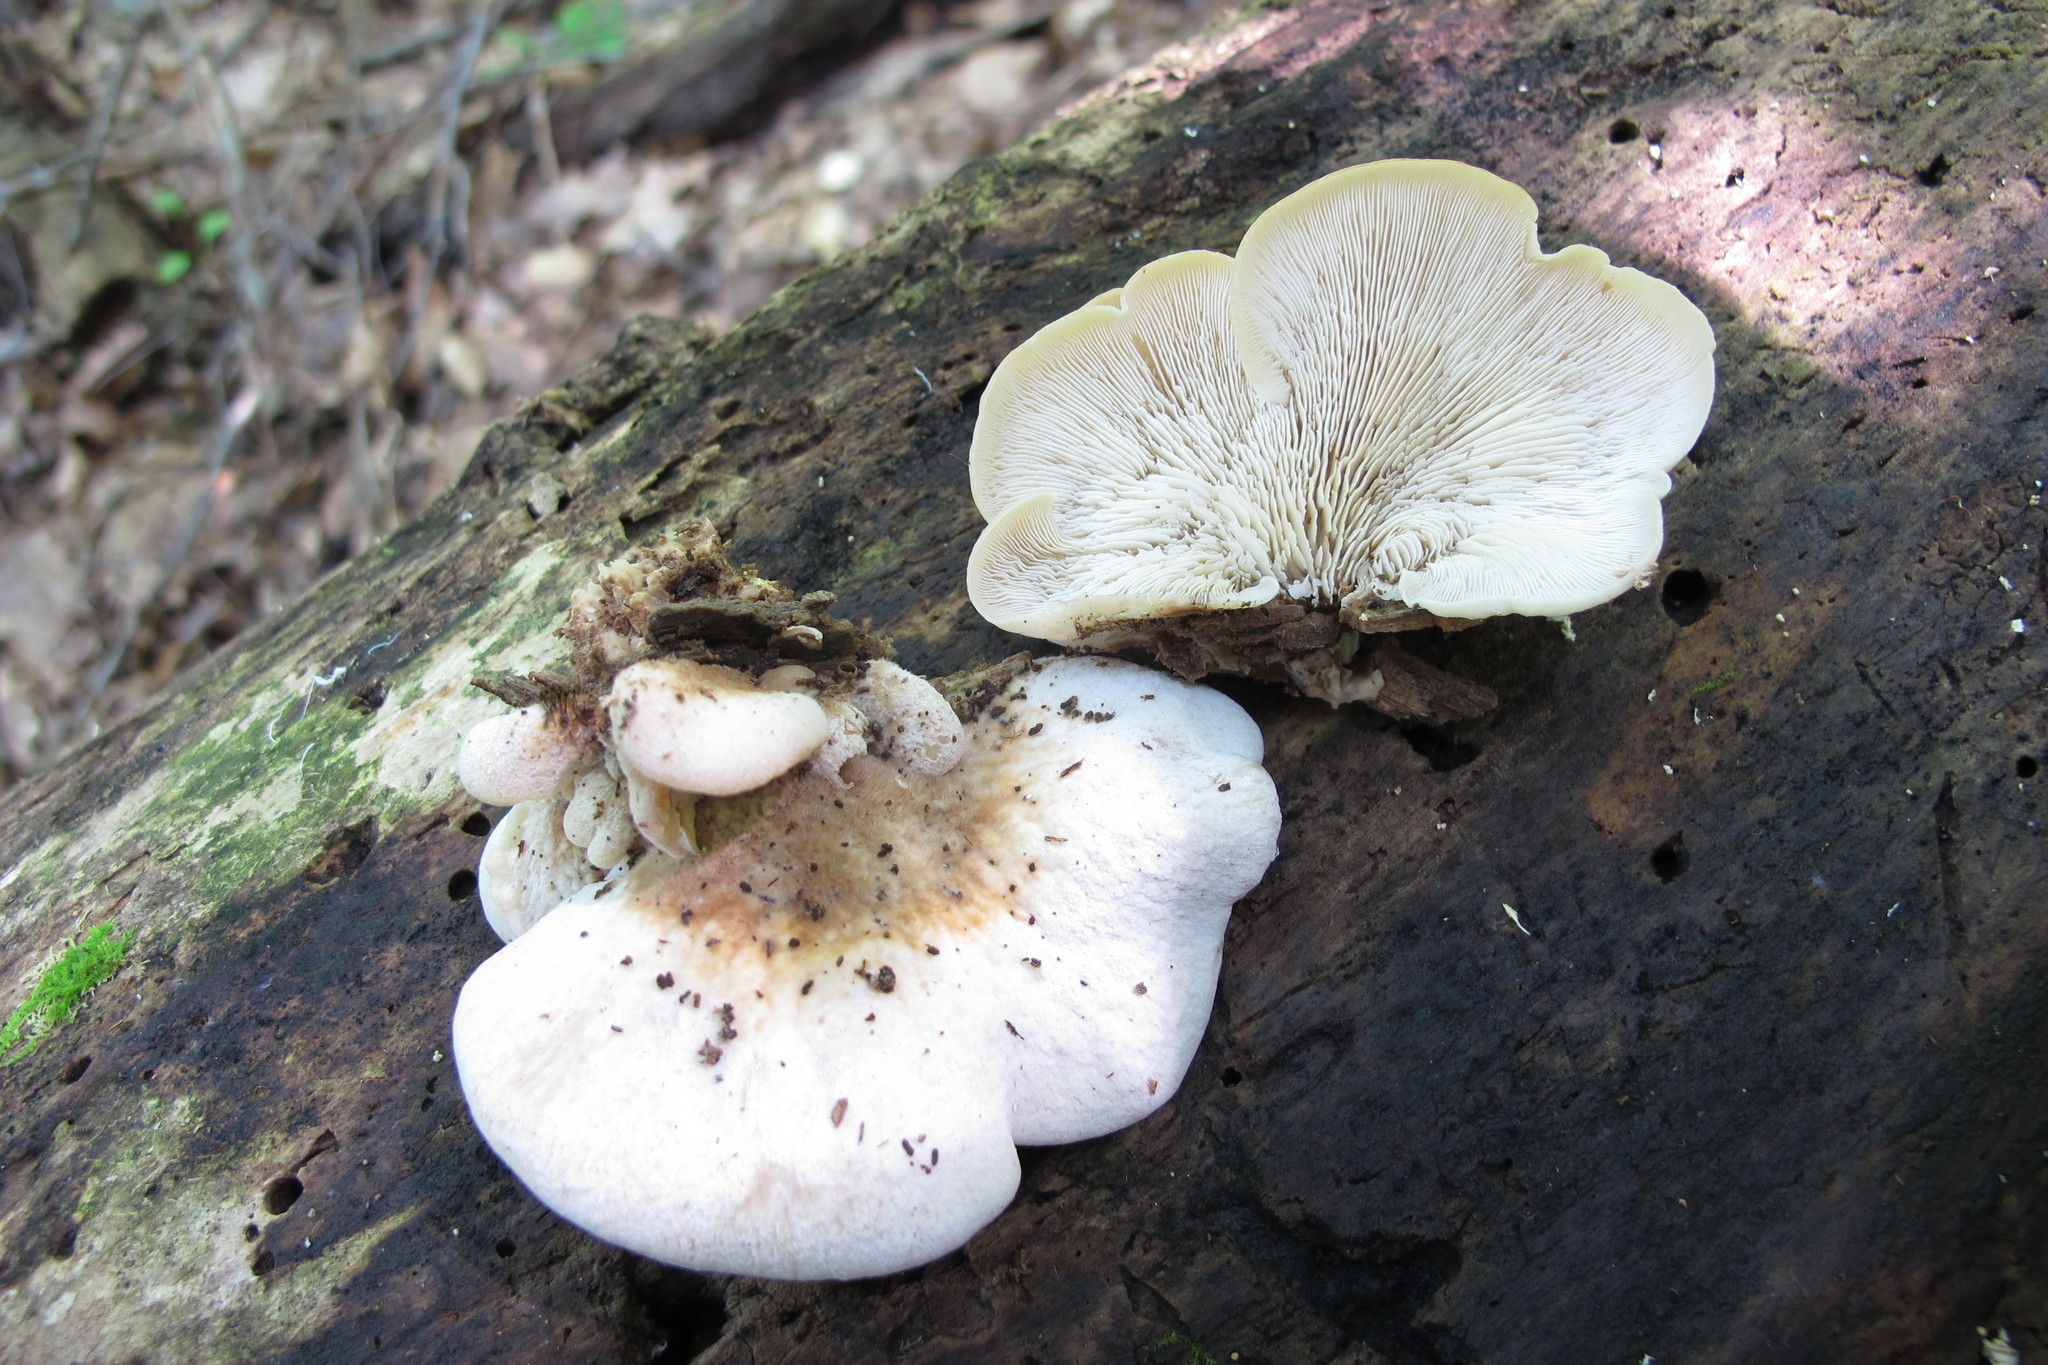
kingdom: Fungi
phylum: Basidiomycota
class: Agaricomycetes
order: Russulales
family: Auriscalpiaceae
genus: Lentinellus
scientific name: Lentinellus ursinus
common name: Bear lentinus
